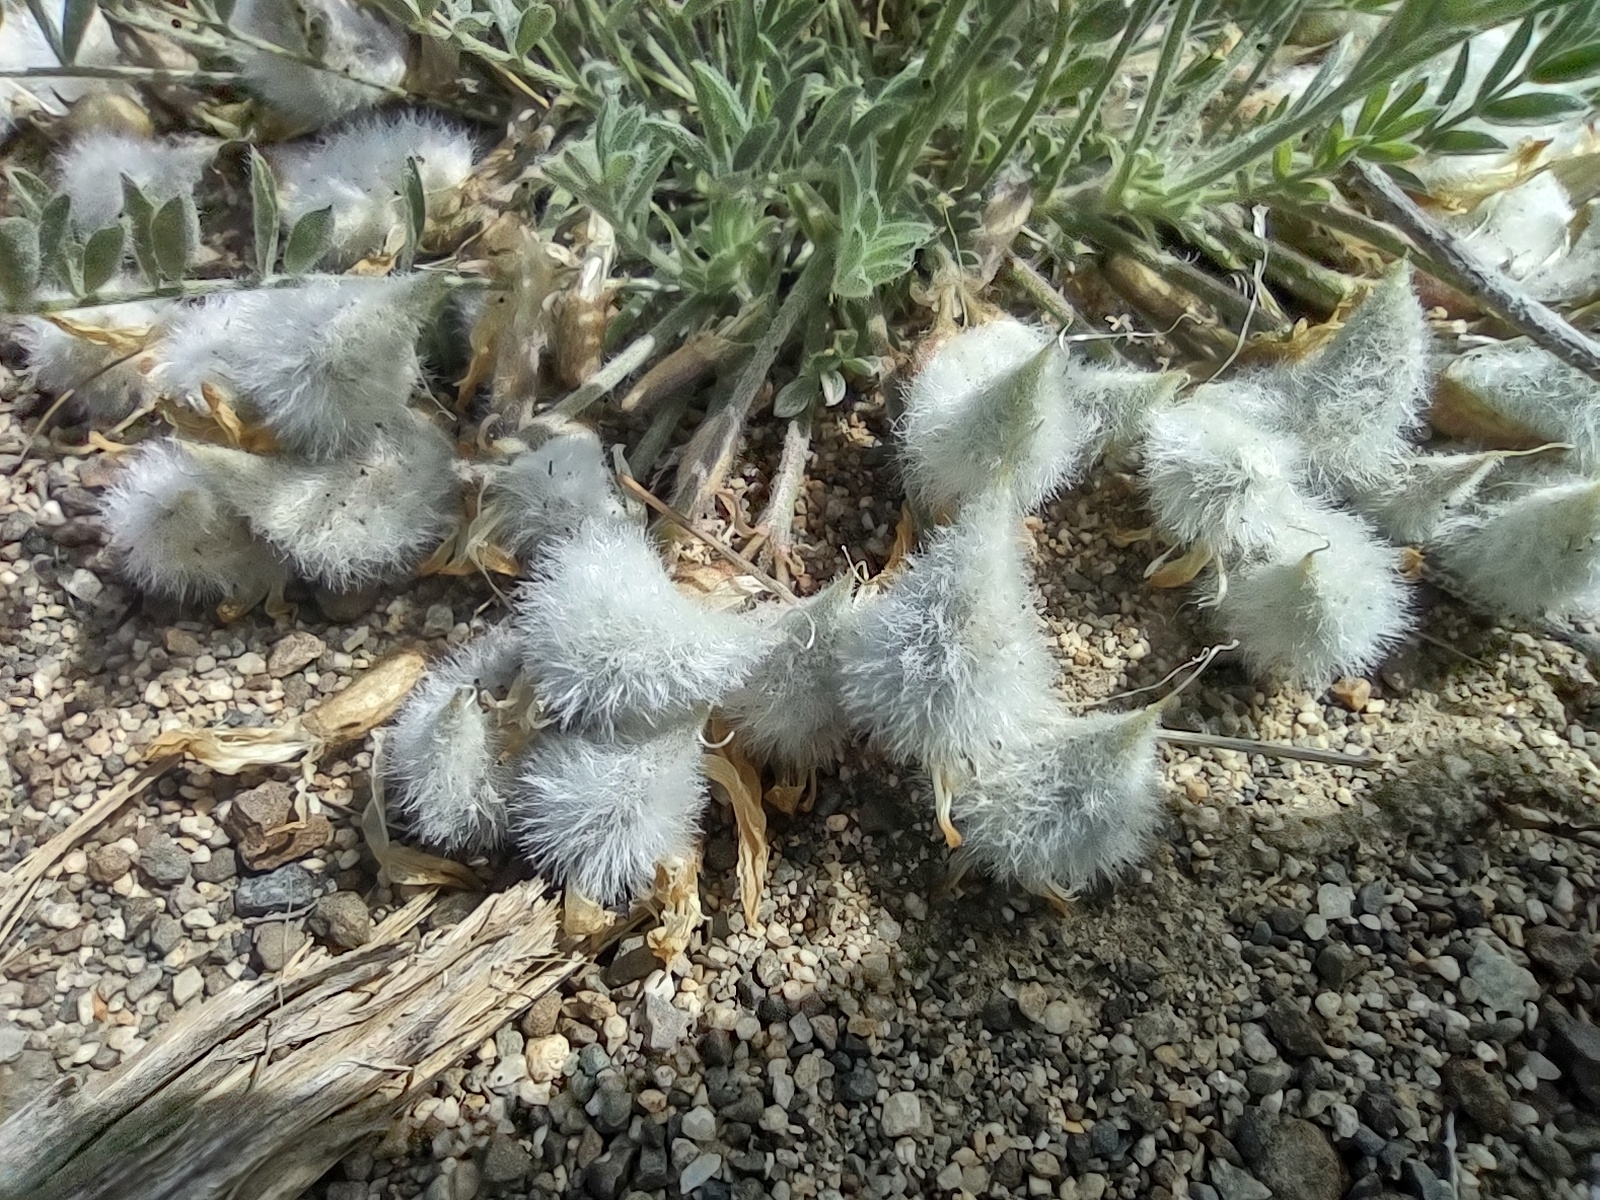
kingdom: Plantae
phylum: Tracheophyta
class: Magnoliopsida
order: Fabales
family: Fabaceae
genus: Astragalus
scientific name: Astragalus purshii
